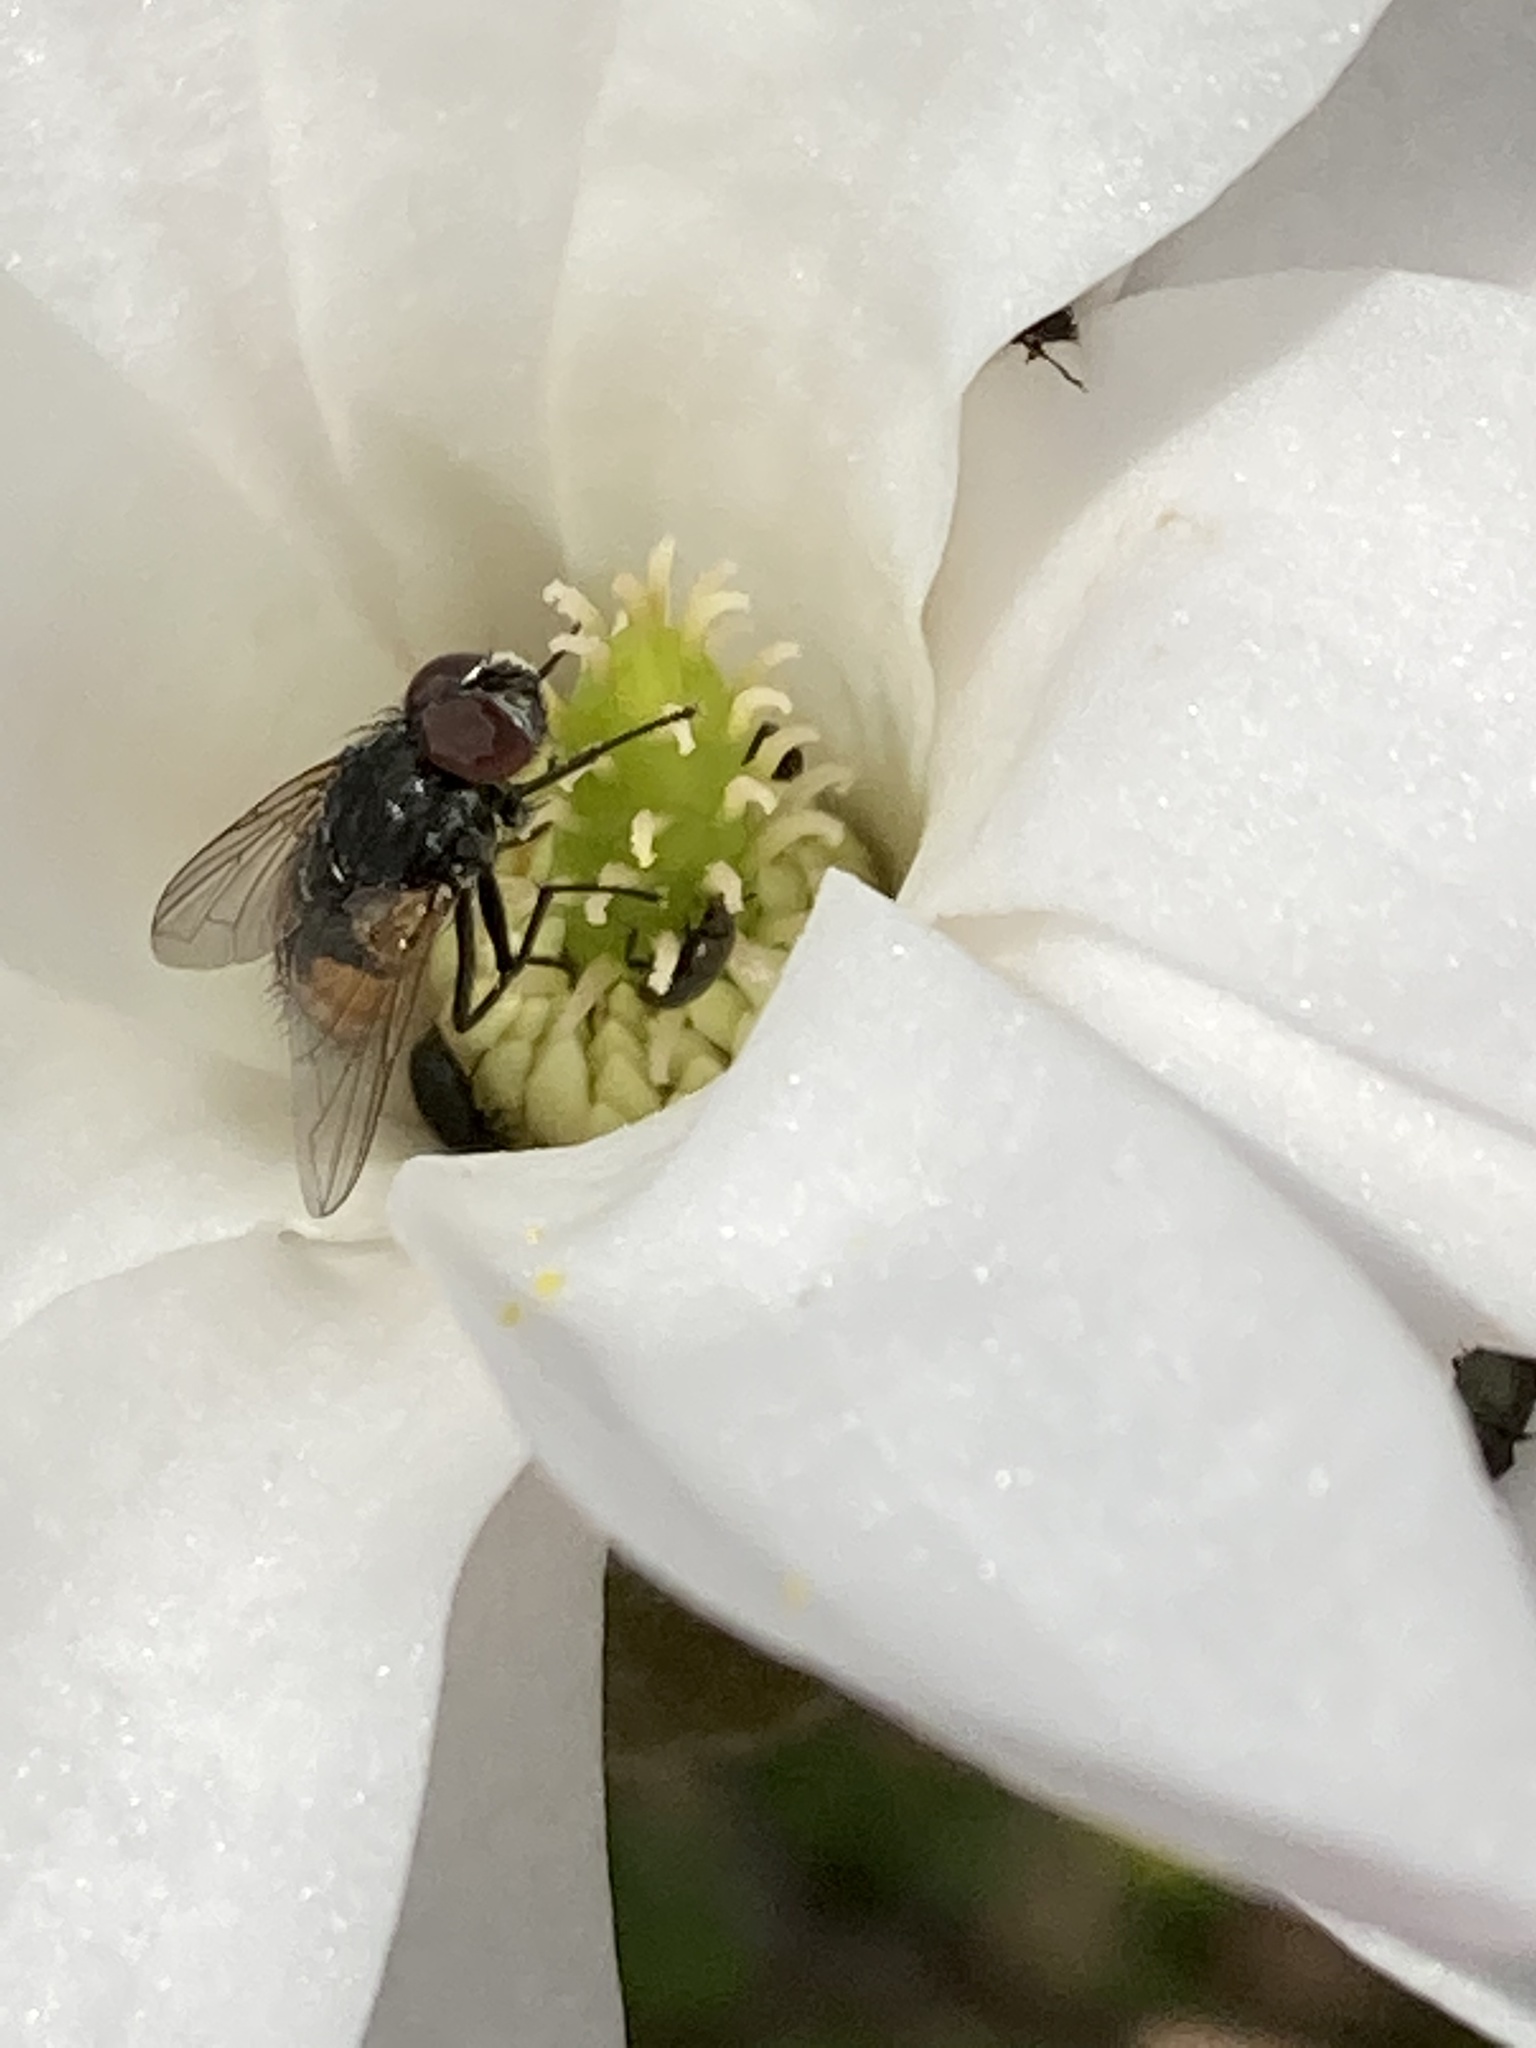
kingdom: Animalia
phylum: Arthropoda
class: Insecta
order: Diptera
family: Muscidae
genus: Musca
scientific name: Musca autumnalis
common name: Face fly
